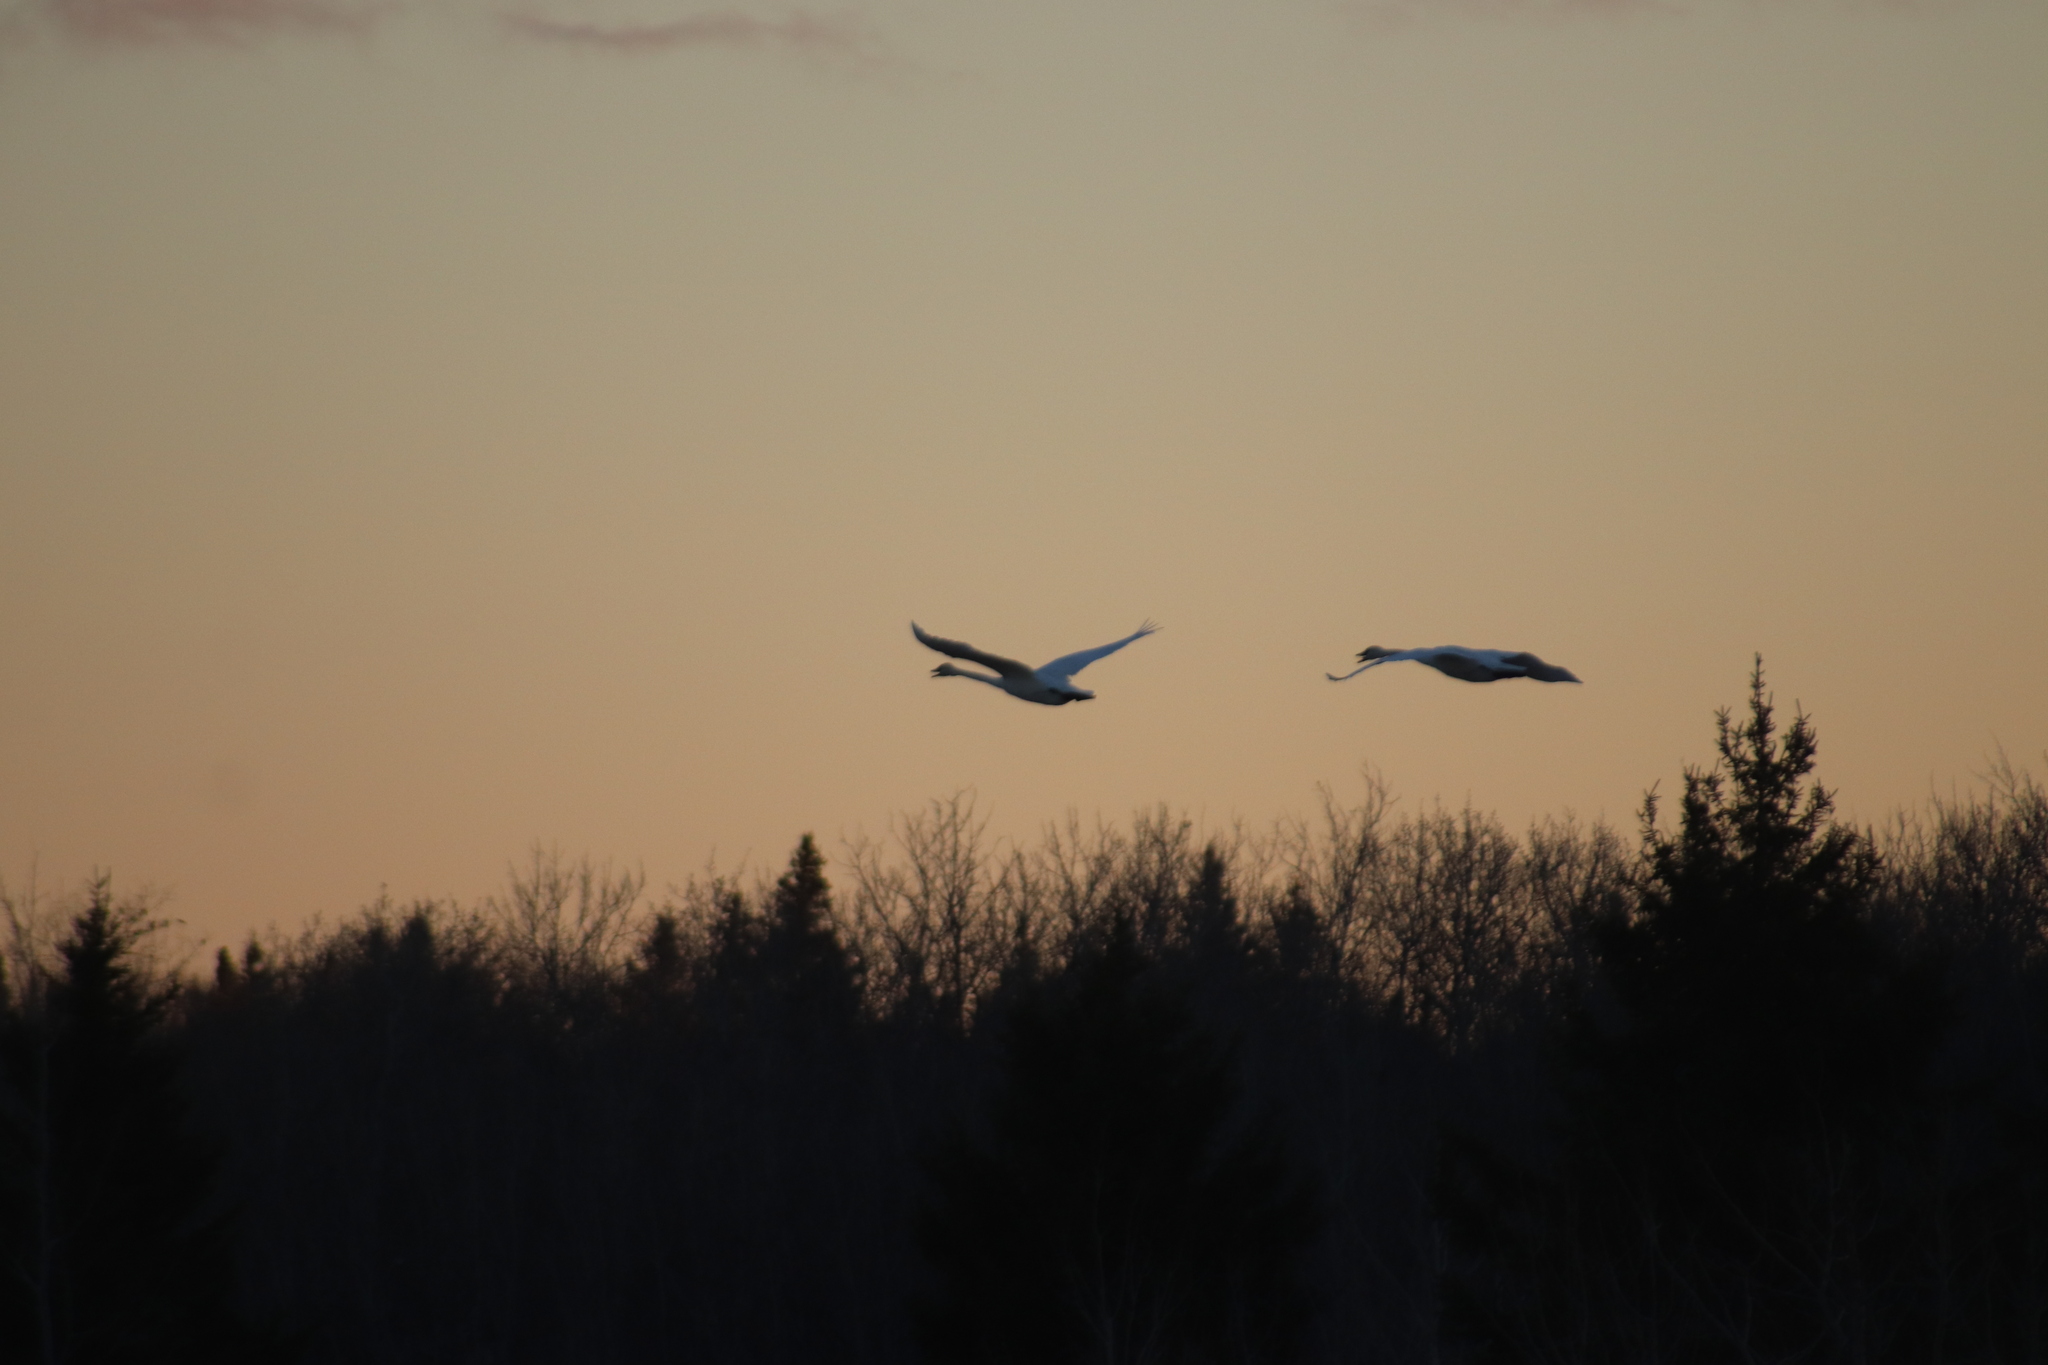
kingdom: Animalia
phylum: Chordata
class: Aves
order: Anseriformes
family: Anatidae
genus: Cygnus
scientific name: Cygnus buccinator
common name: Trumpeter swan
